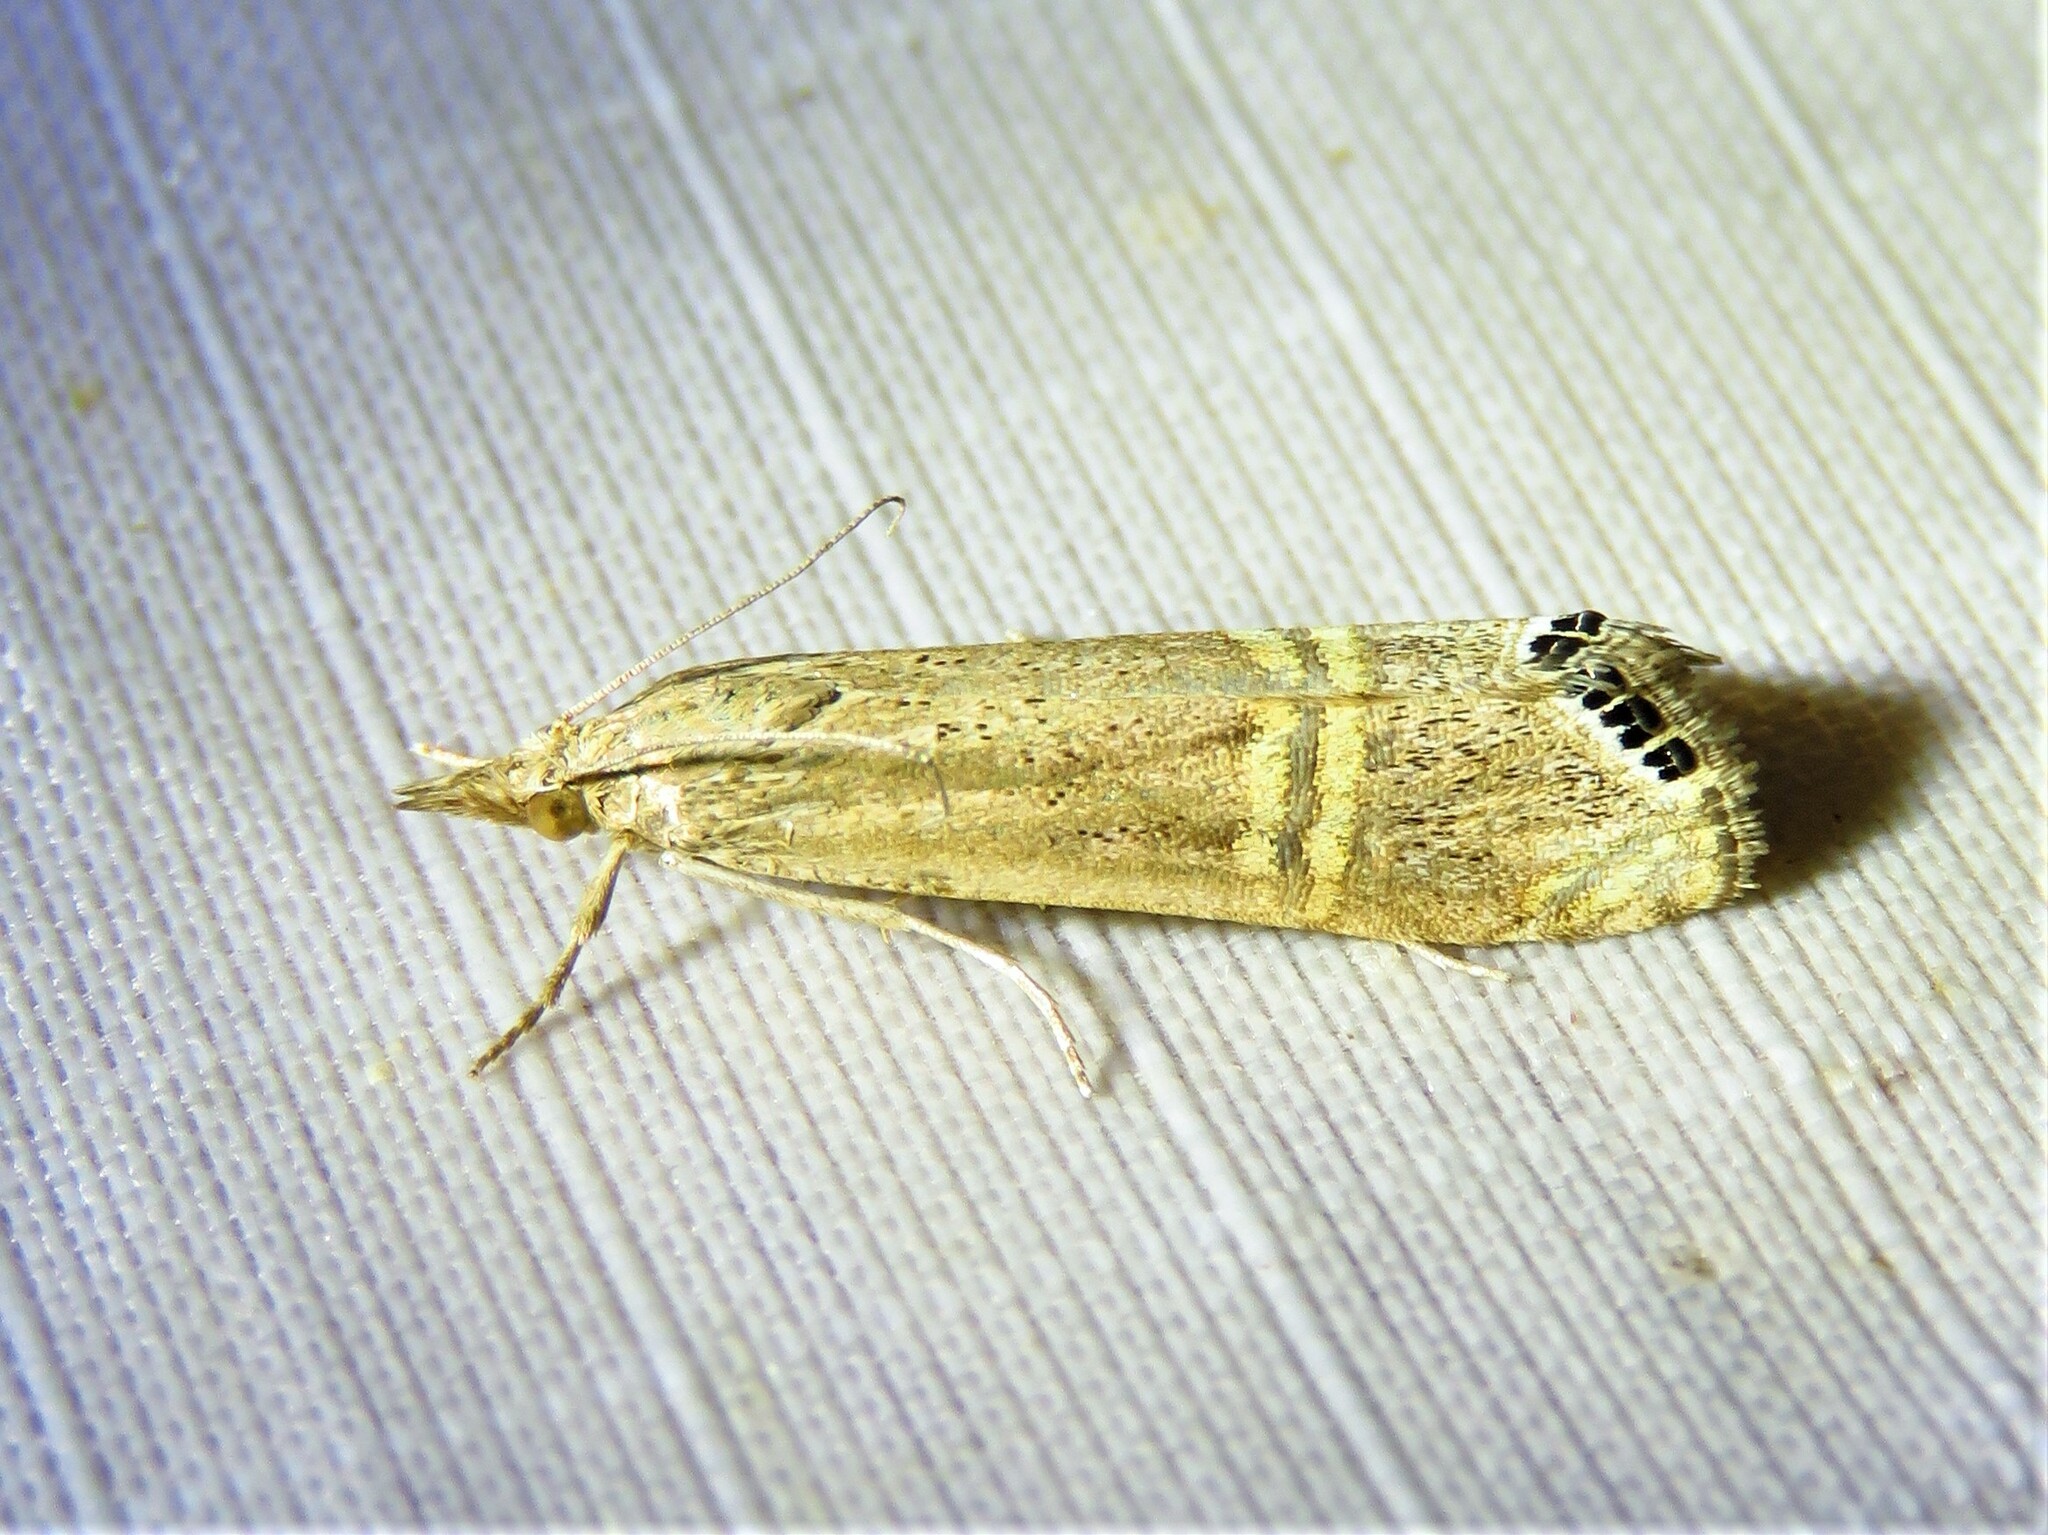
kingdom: Animalia
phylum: Arthropoda
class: Insecta
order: Lepidoptera
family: Crambidae
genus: Euchromius
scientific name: Euchromius ocellea
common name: Necklace veneer moth
